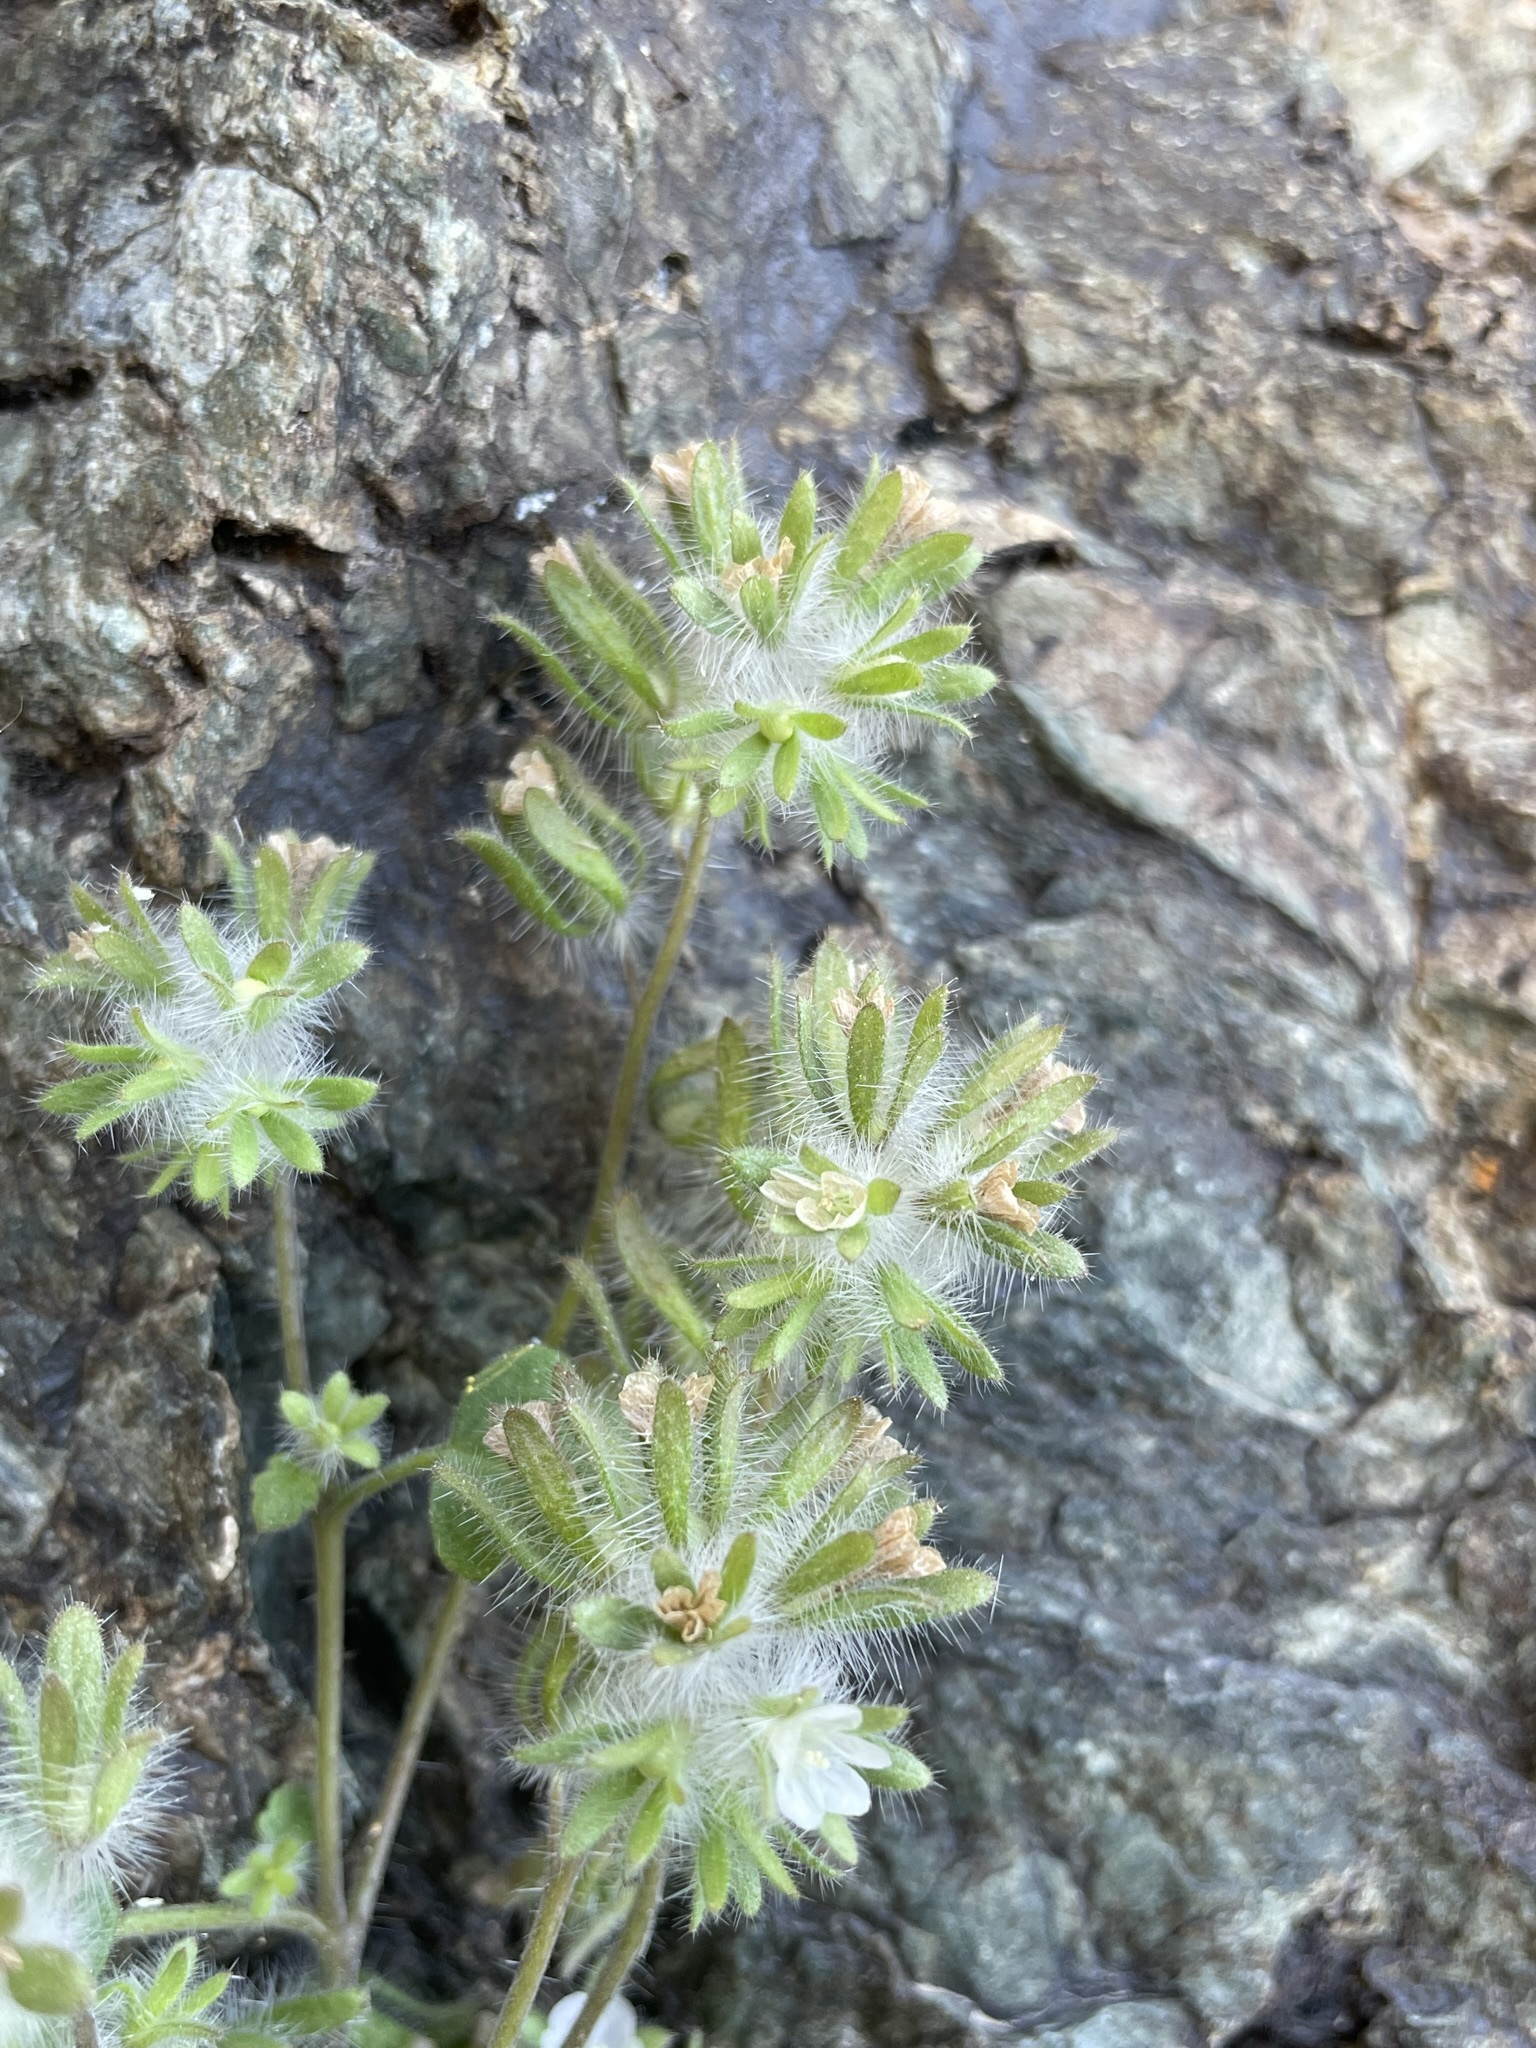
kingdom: Plantae
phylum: Tracheophyta
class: Magnoliopsida
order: Boraginales
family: Hydrophyllaceae
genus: Phacelia
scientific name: Phacelia cryptantha
